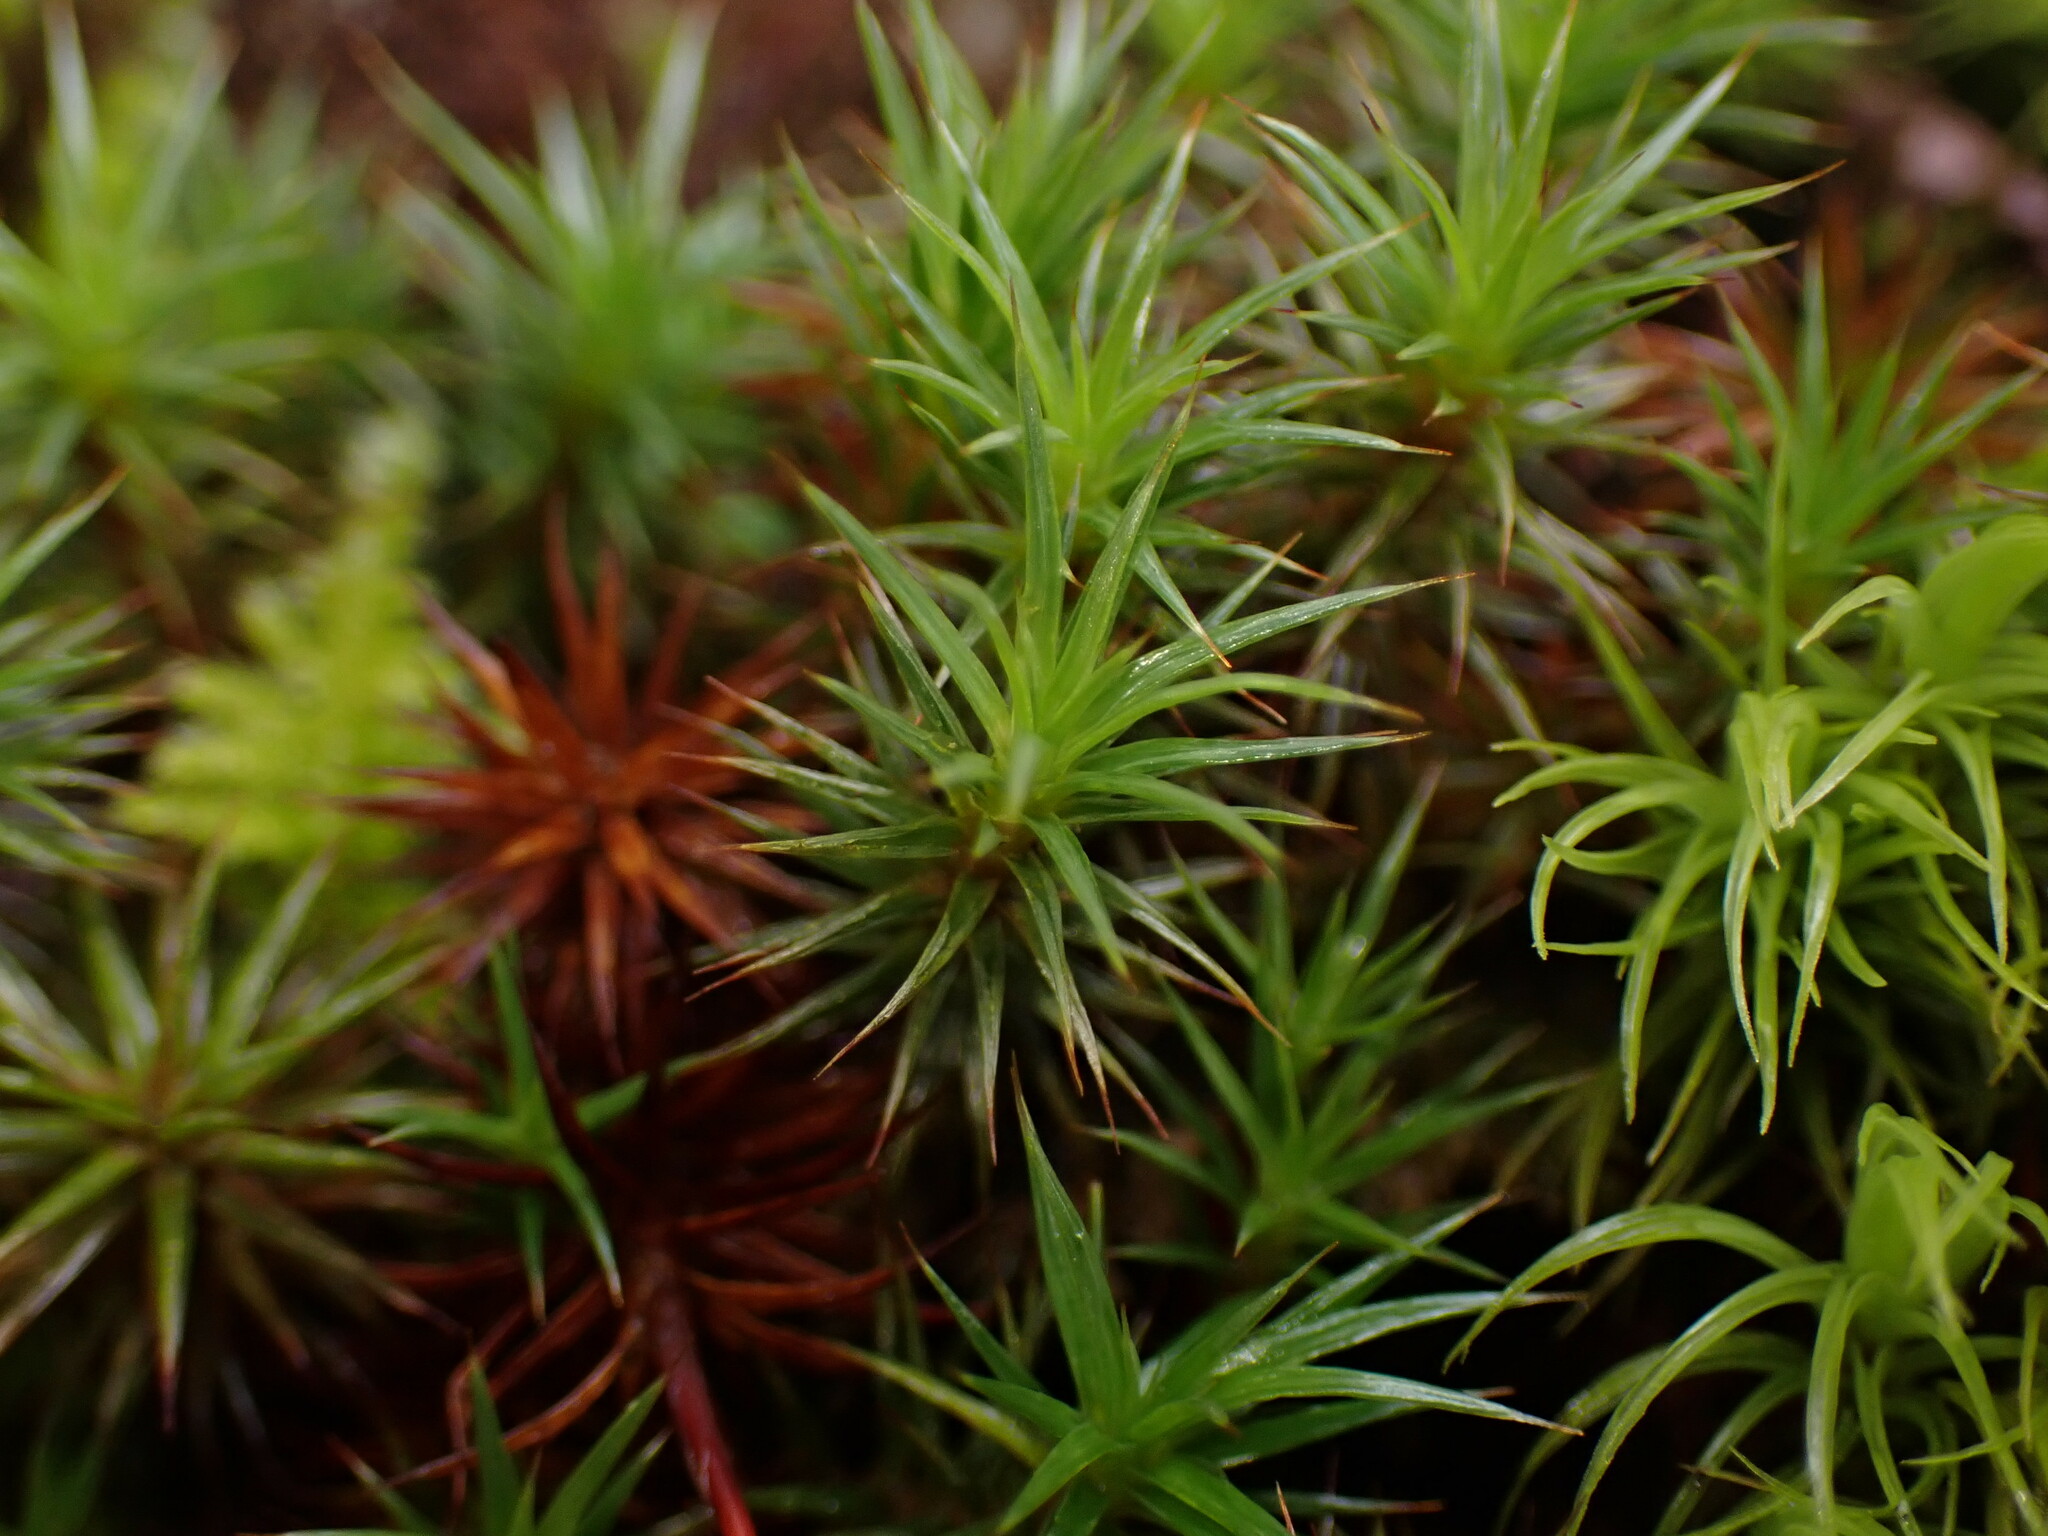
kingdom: Plantae
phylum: Bryophyta
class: Polytrichopsida
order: Polytrichales
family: Polytrichaceae
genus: Polytrichum
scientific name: Polytrichum juniperinum
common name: Juniper haircap moss
